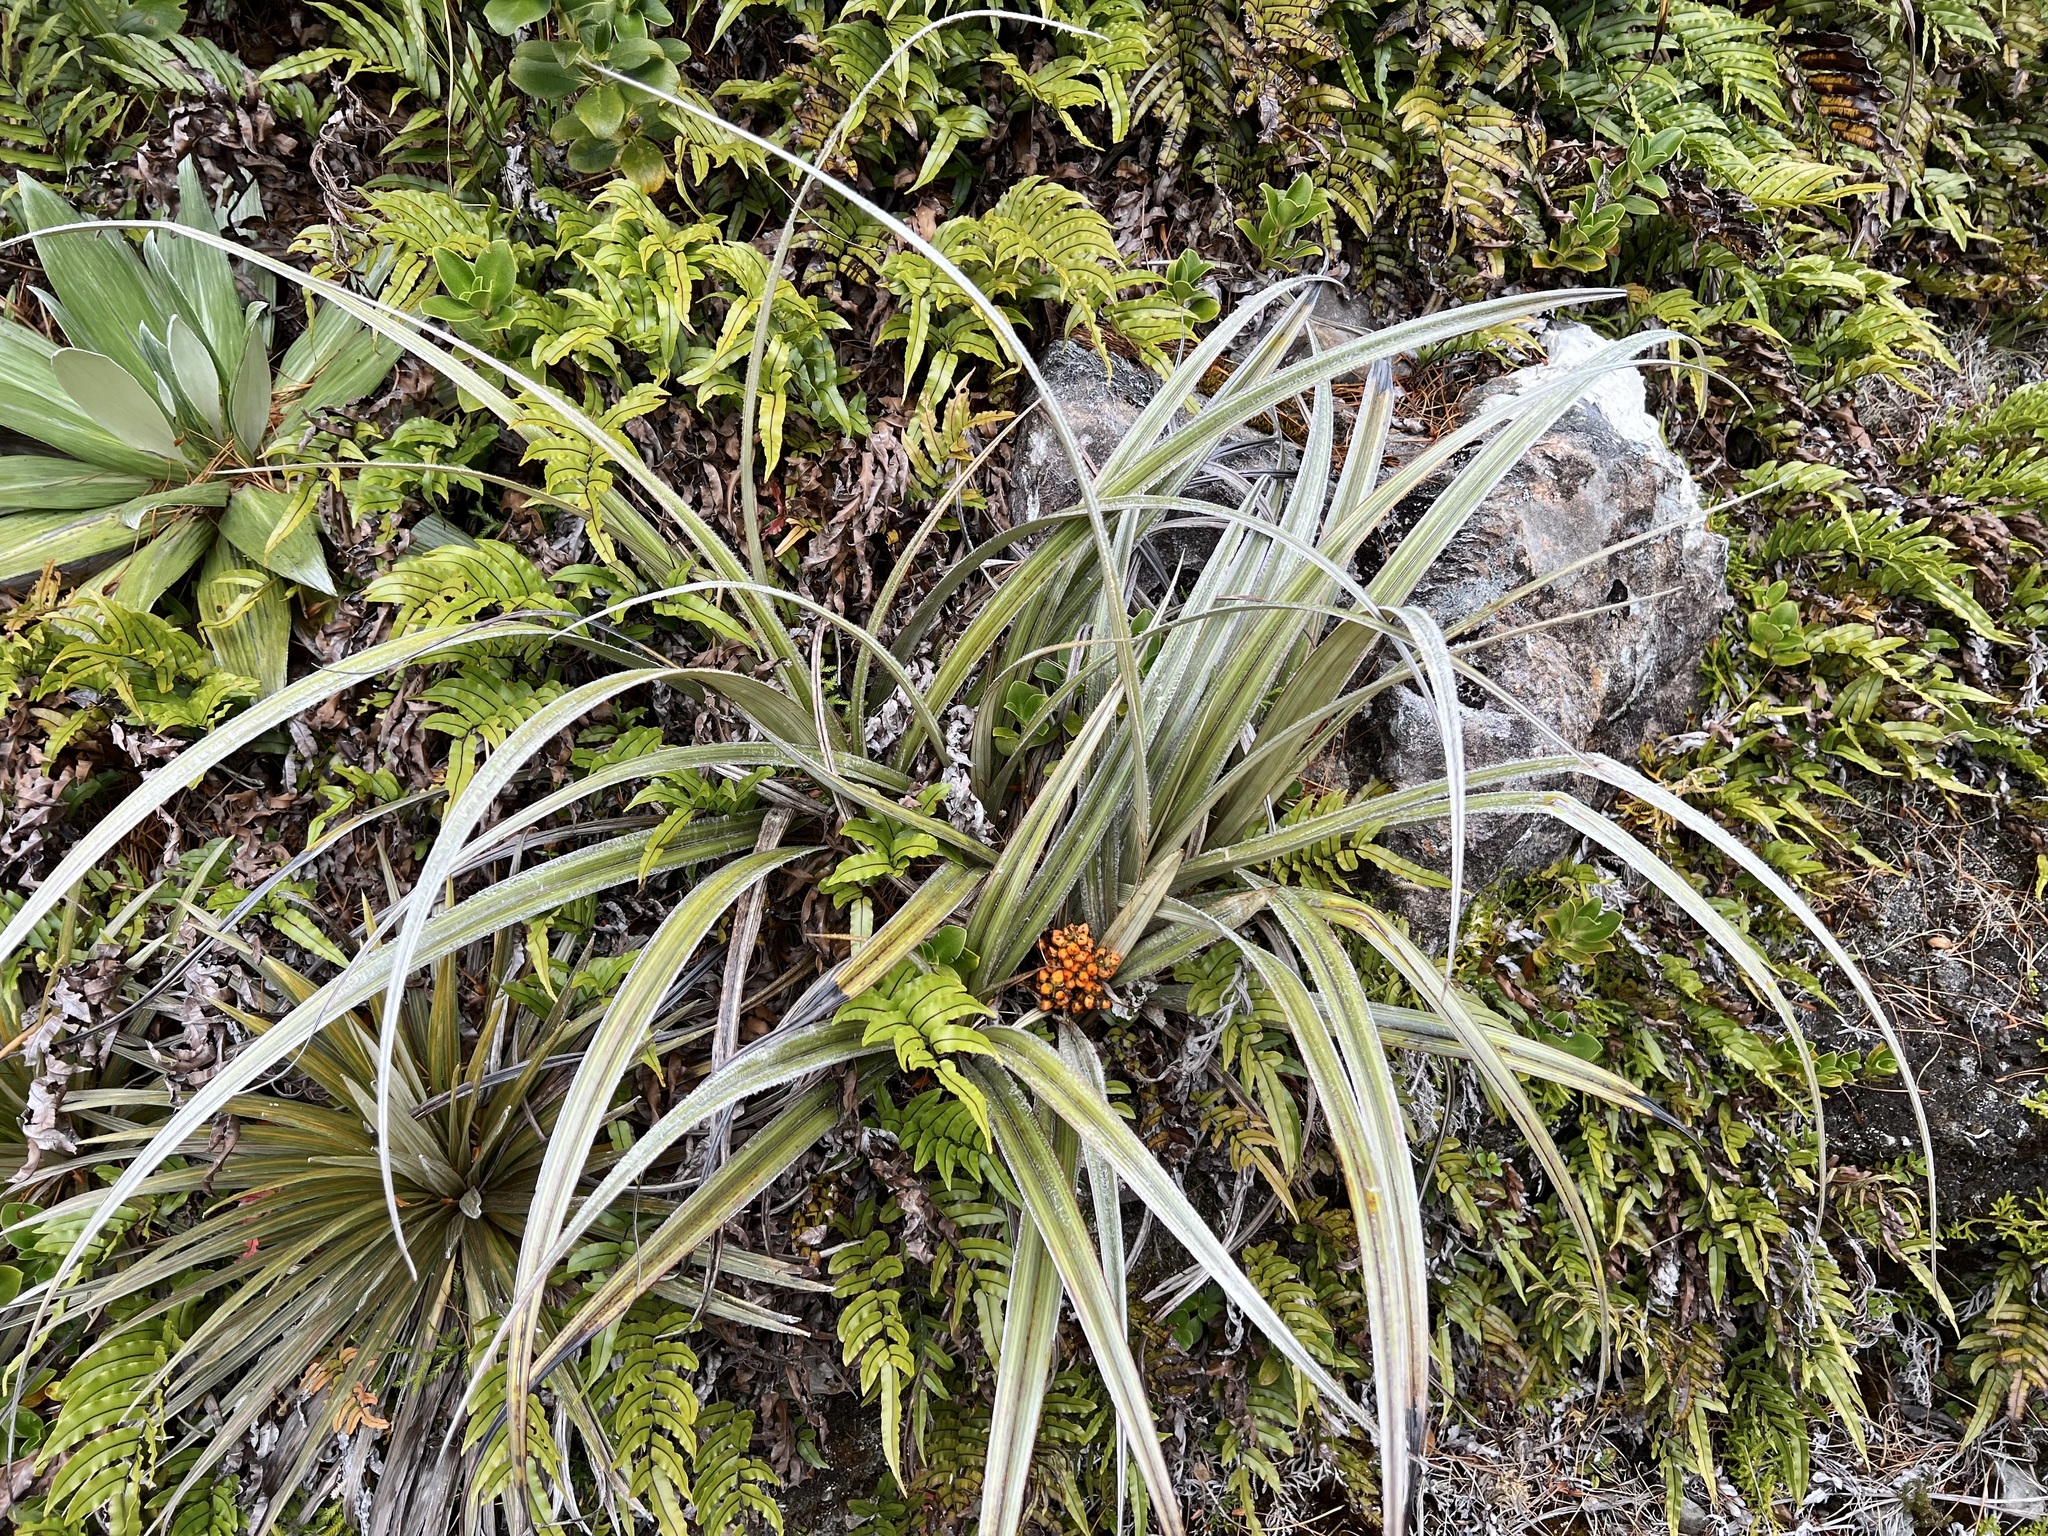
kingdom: Plantae
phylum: Tracheophyta
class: Liliopsida
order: Asparagales
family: Asteliaceae
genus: Astelia
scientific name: Astelia nervosa
